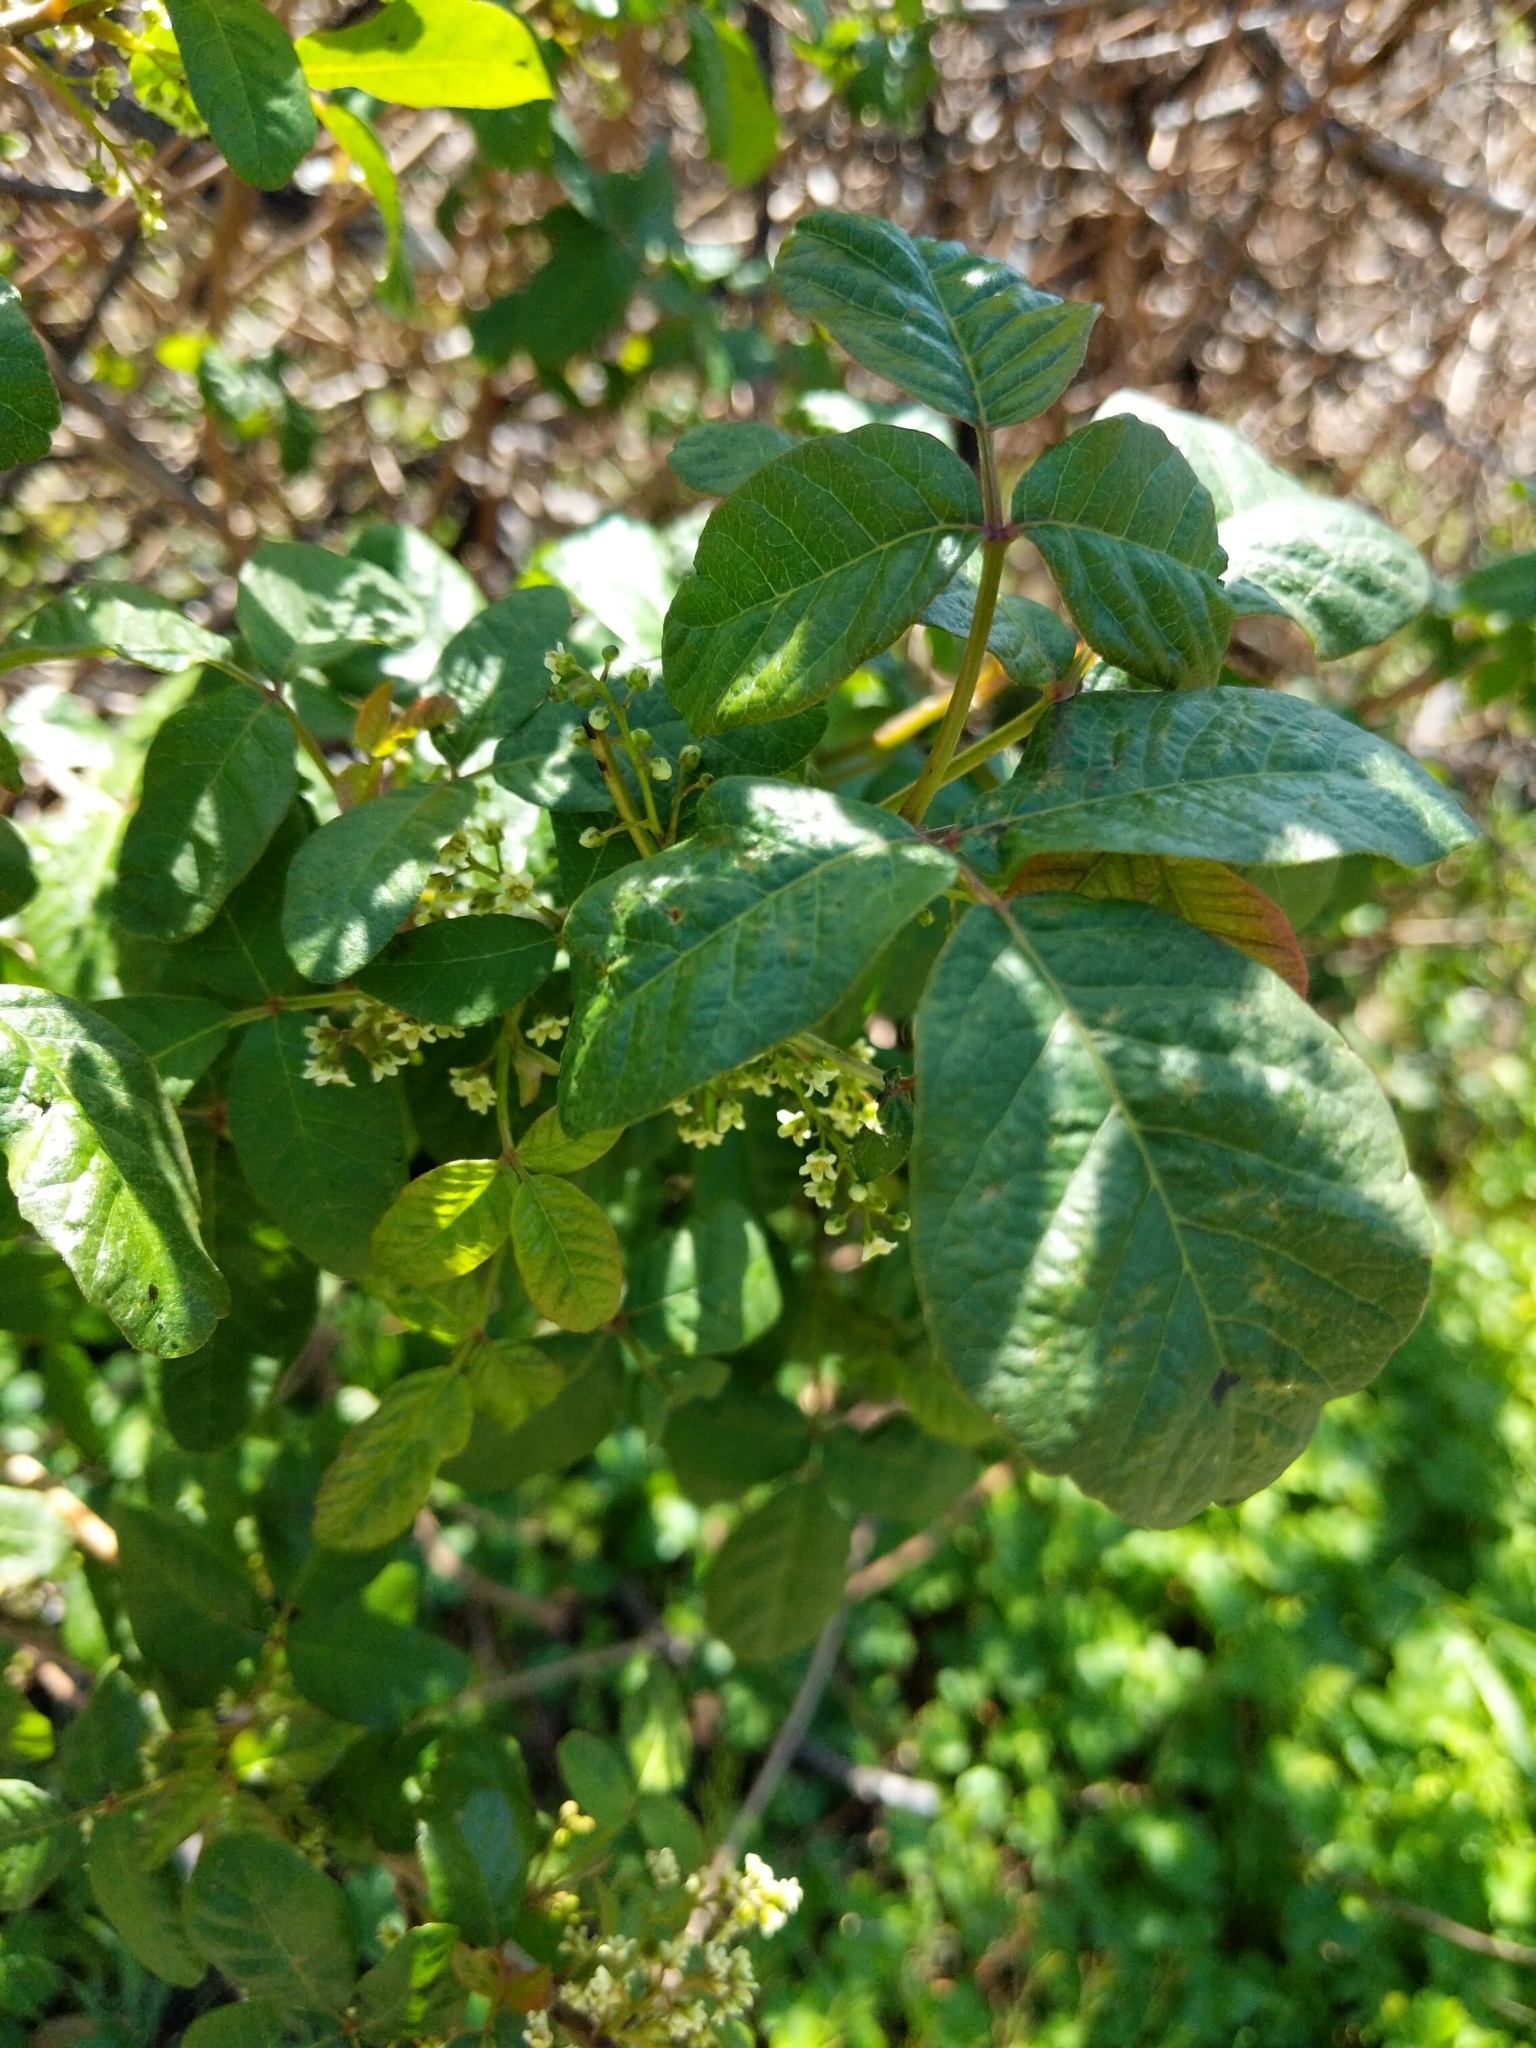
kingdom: Plantae
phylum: Tracheophyta
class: Magnoliopsida
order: Sapindales
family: Anacardiaceae
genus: Toxicodendron
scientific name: Toxicodendron diversilobum
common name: Pacific poison-oak
